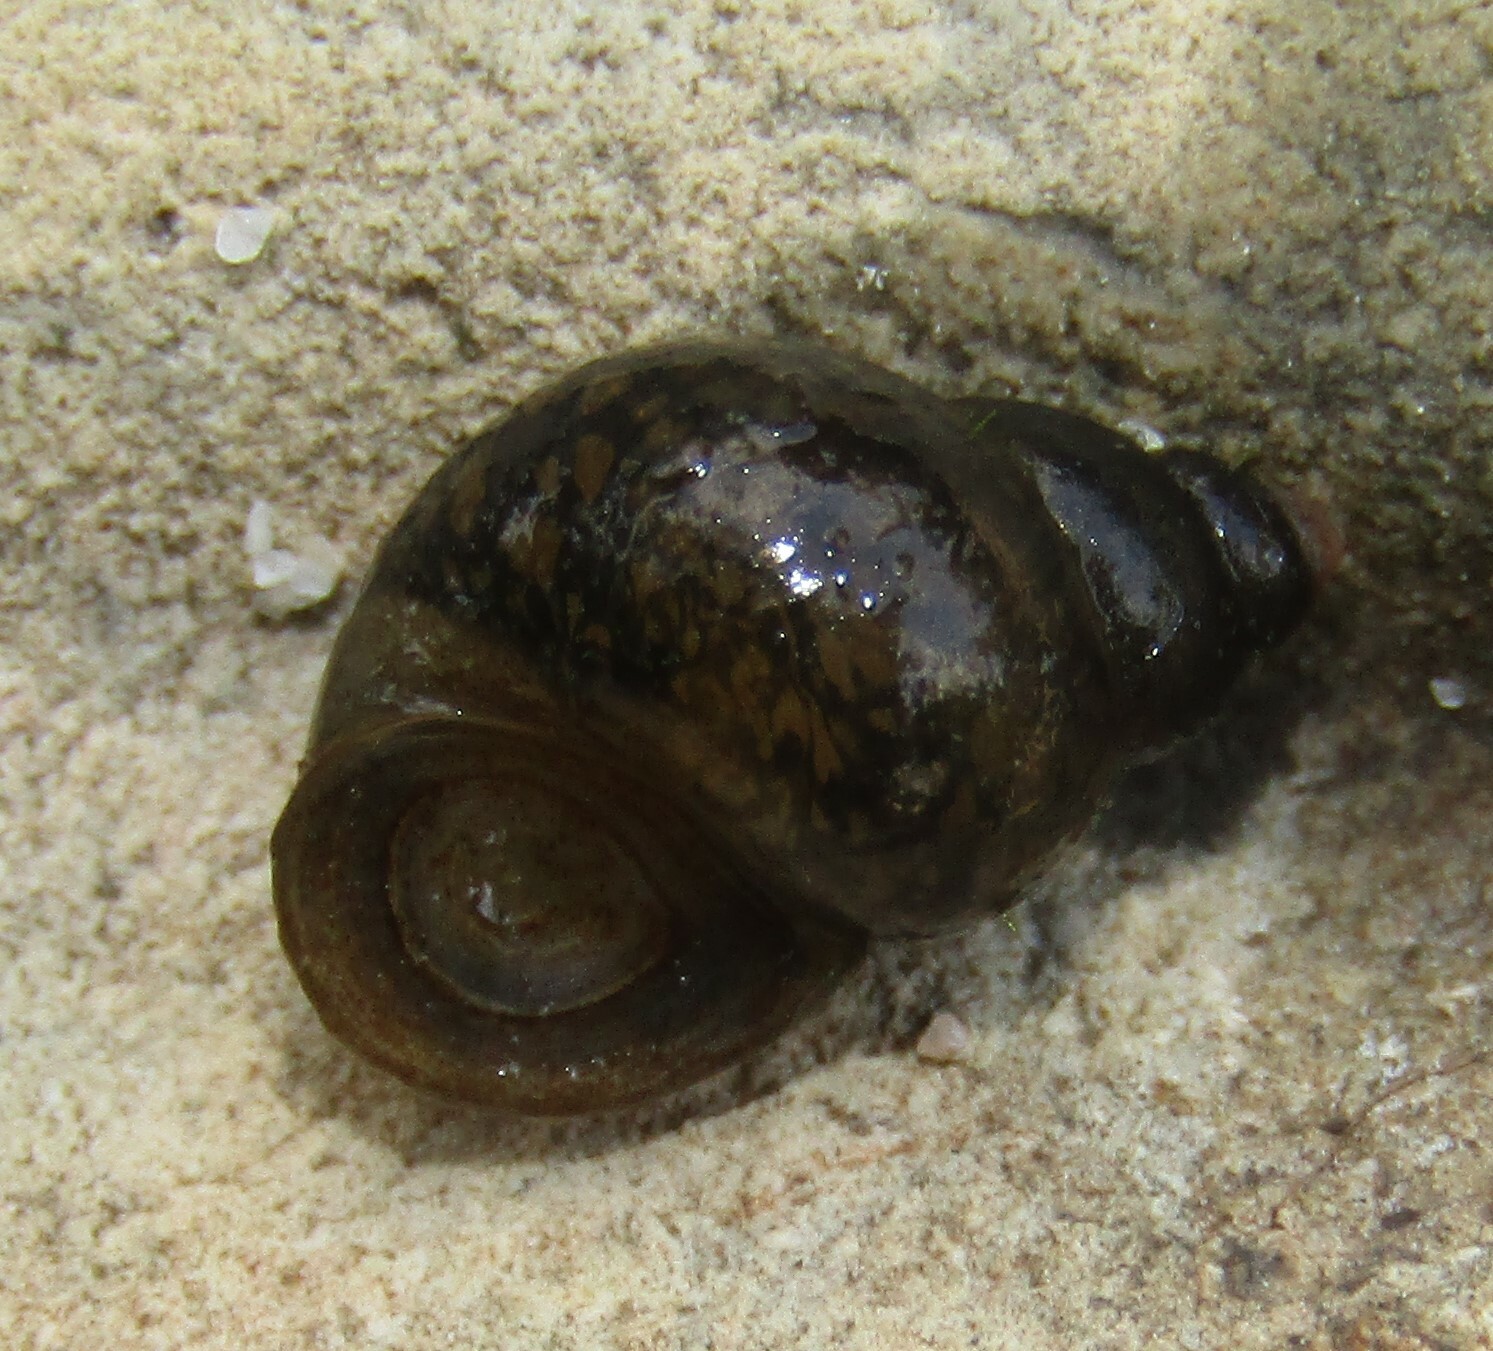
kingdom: Animalia
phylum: Mollusca
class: Gastropoda
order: Littorinimorpha
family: Bithyniidae
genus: Bithynia
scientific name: Bithynia tentaculata
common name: Common bithynia
